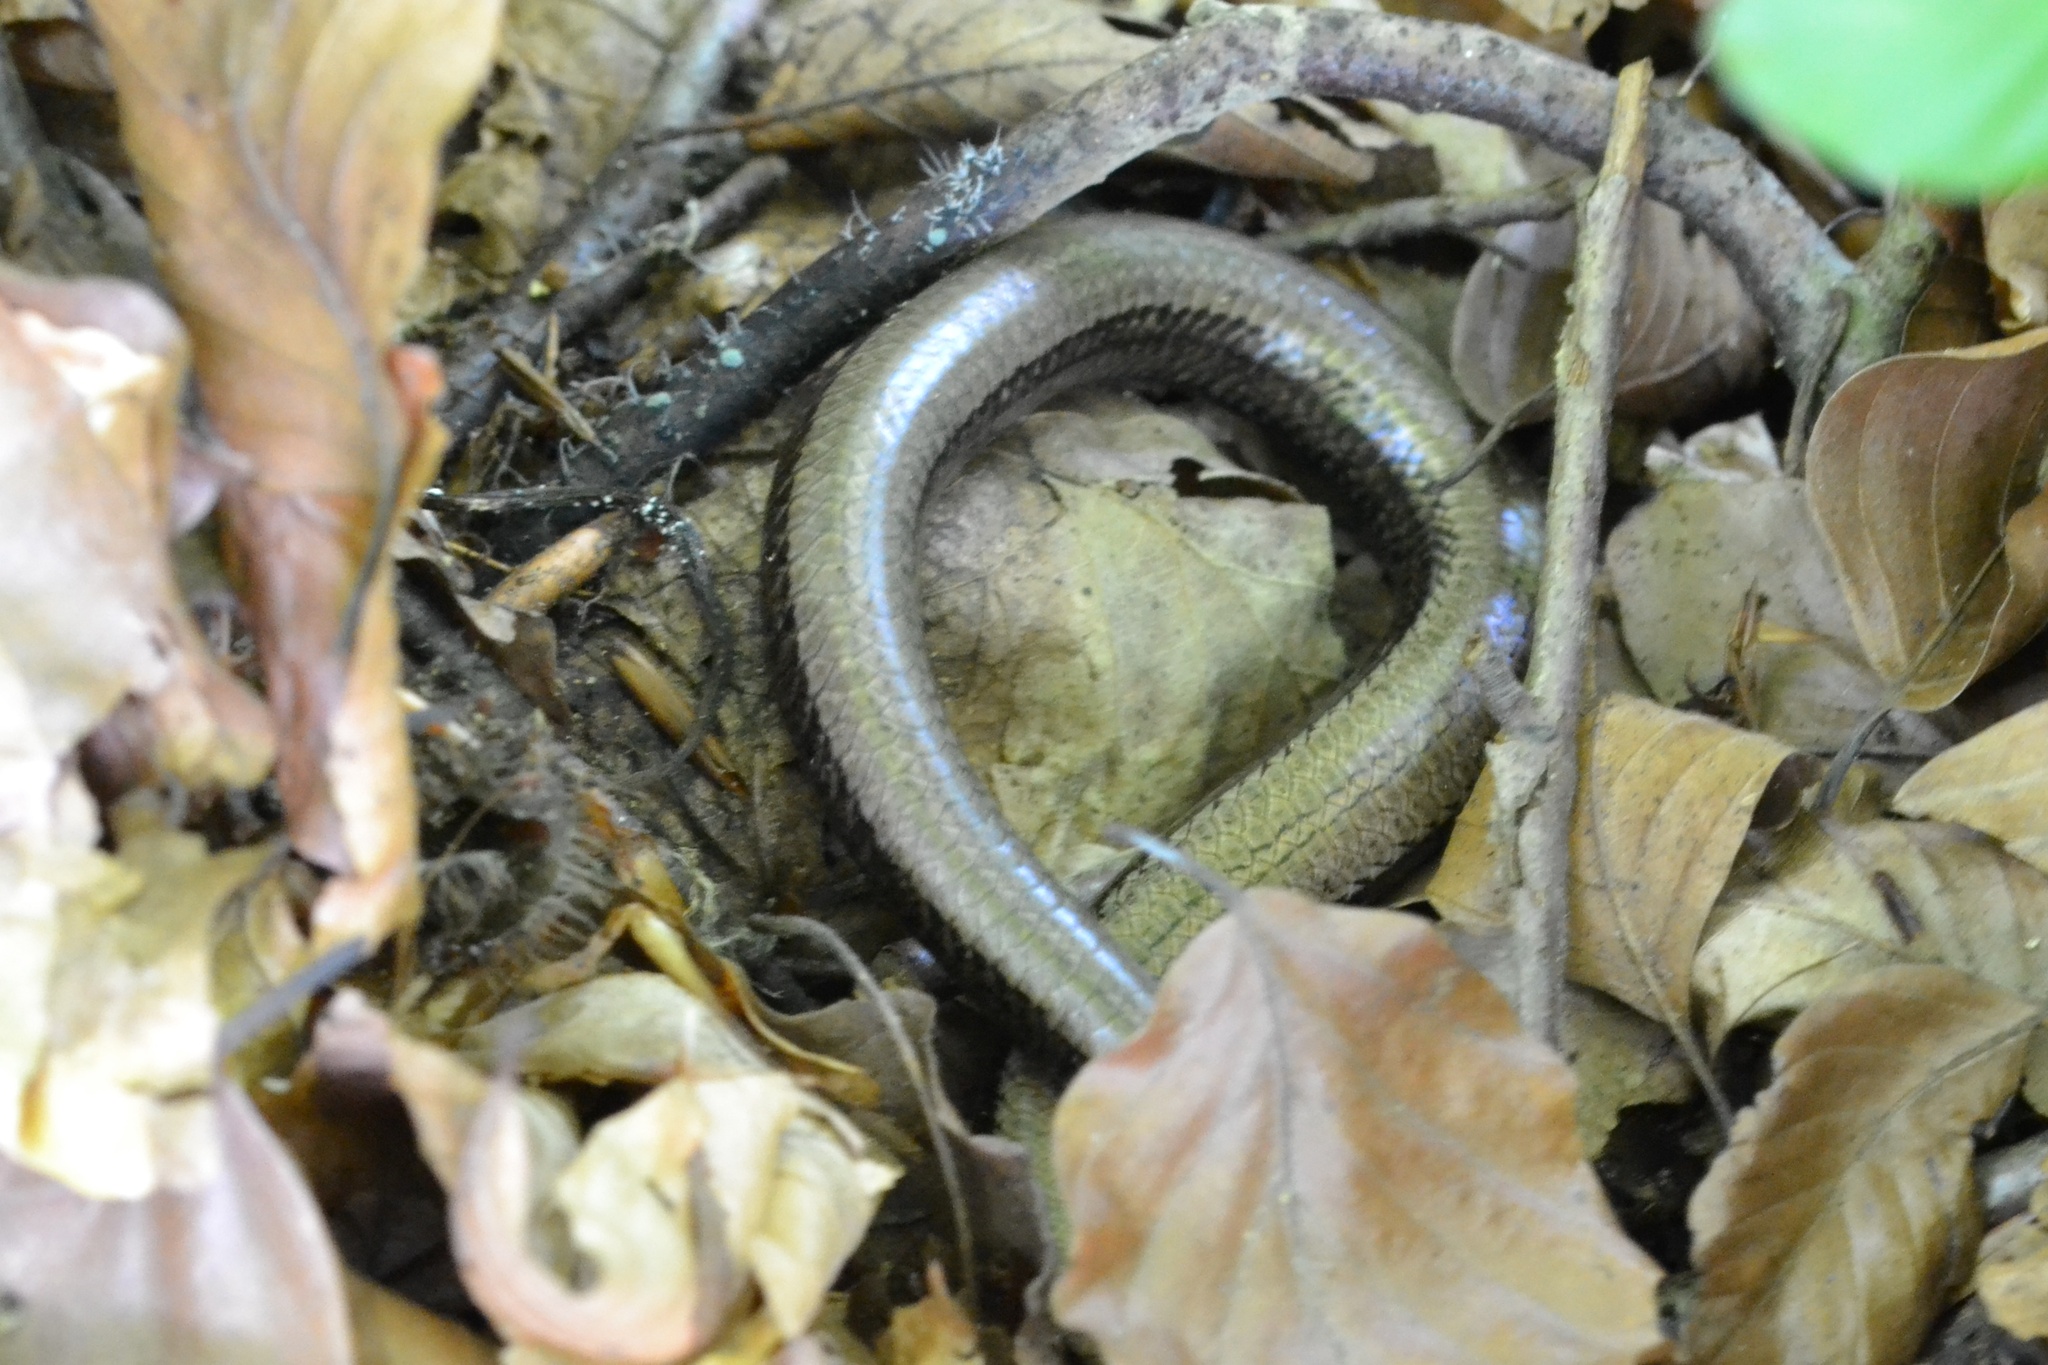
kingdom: Animalia
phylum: Chordata
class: Squamata
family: Anguidae
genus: Anguis
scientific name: Anguis fragilis
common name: Slow worm
